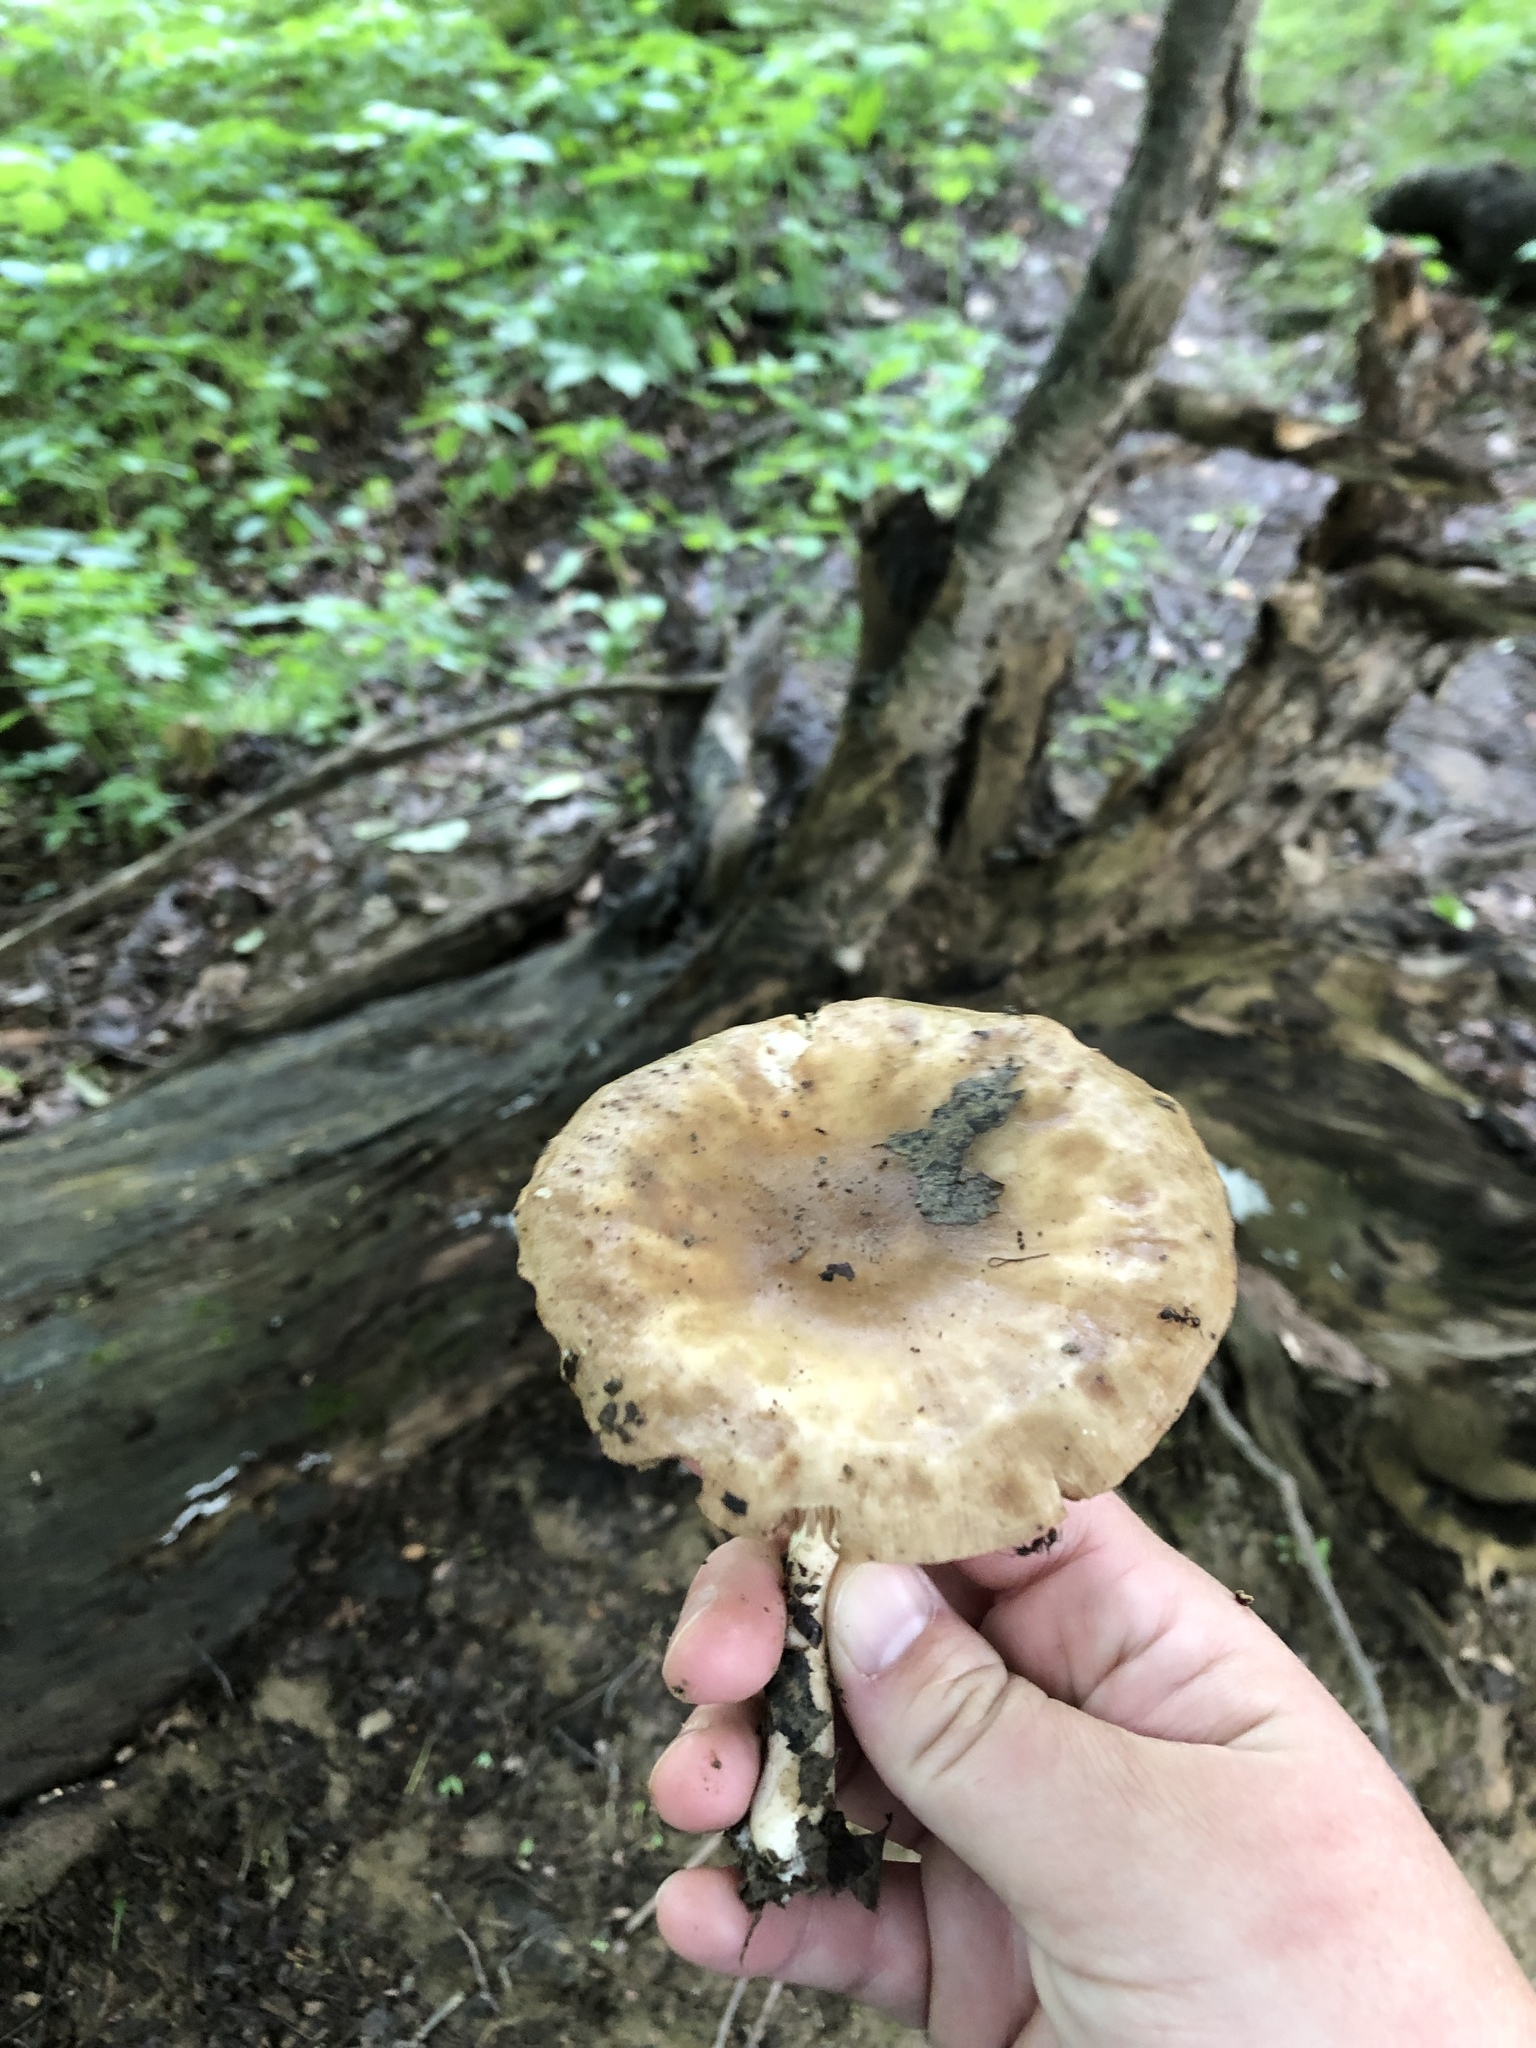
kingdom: Fungi
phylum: Basidiomycota
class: Agaricomycetes
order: Agaricales
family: Pluteaceae
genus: Pluteus
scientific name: Pluteus cervinus
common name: Deer shield
